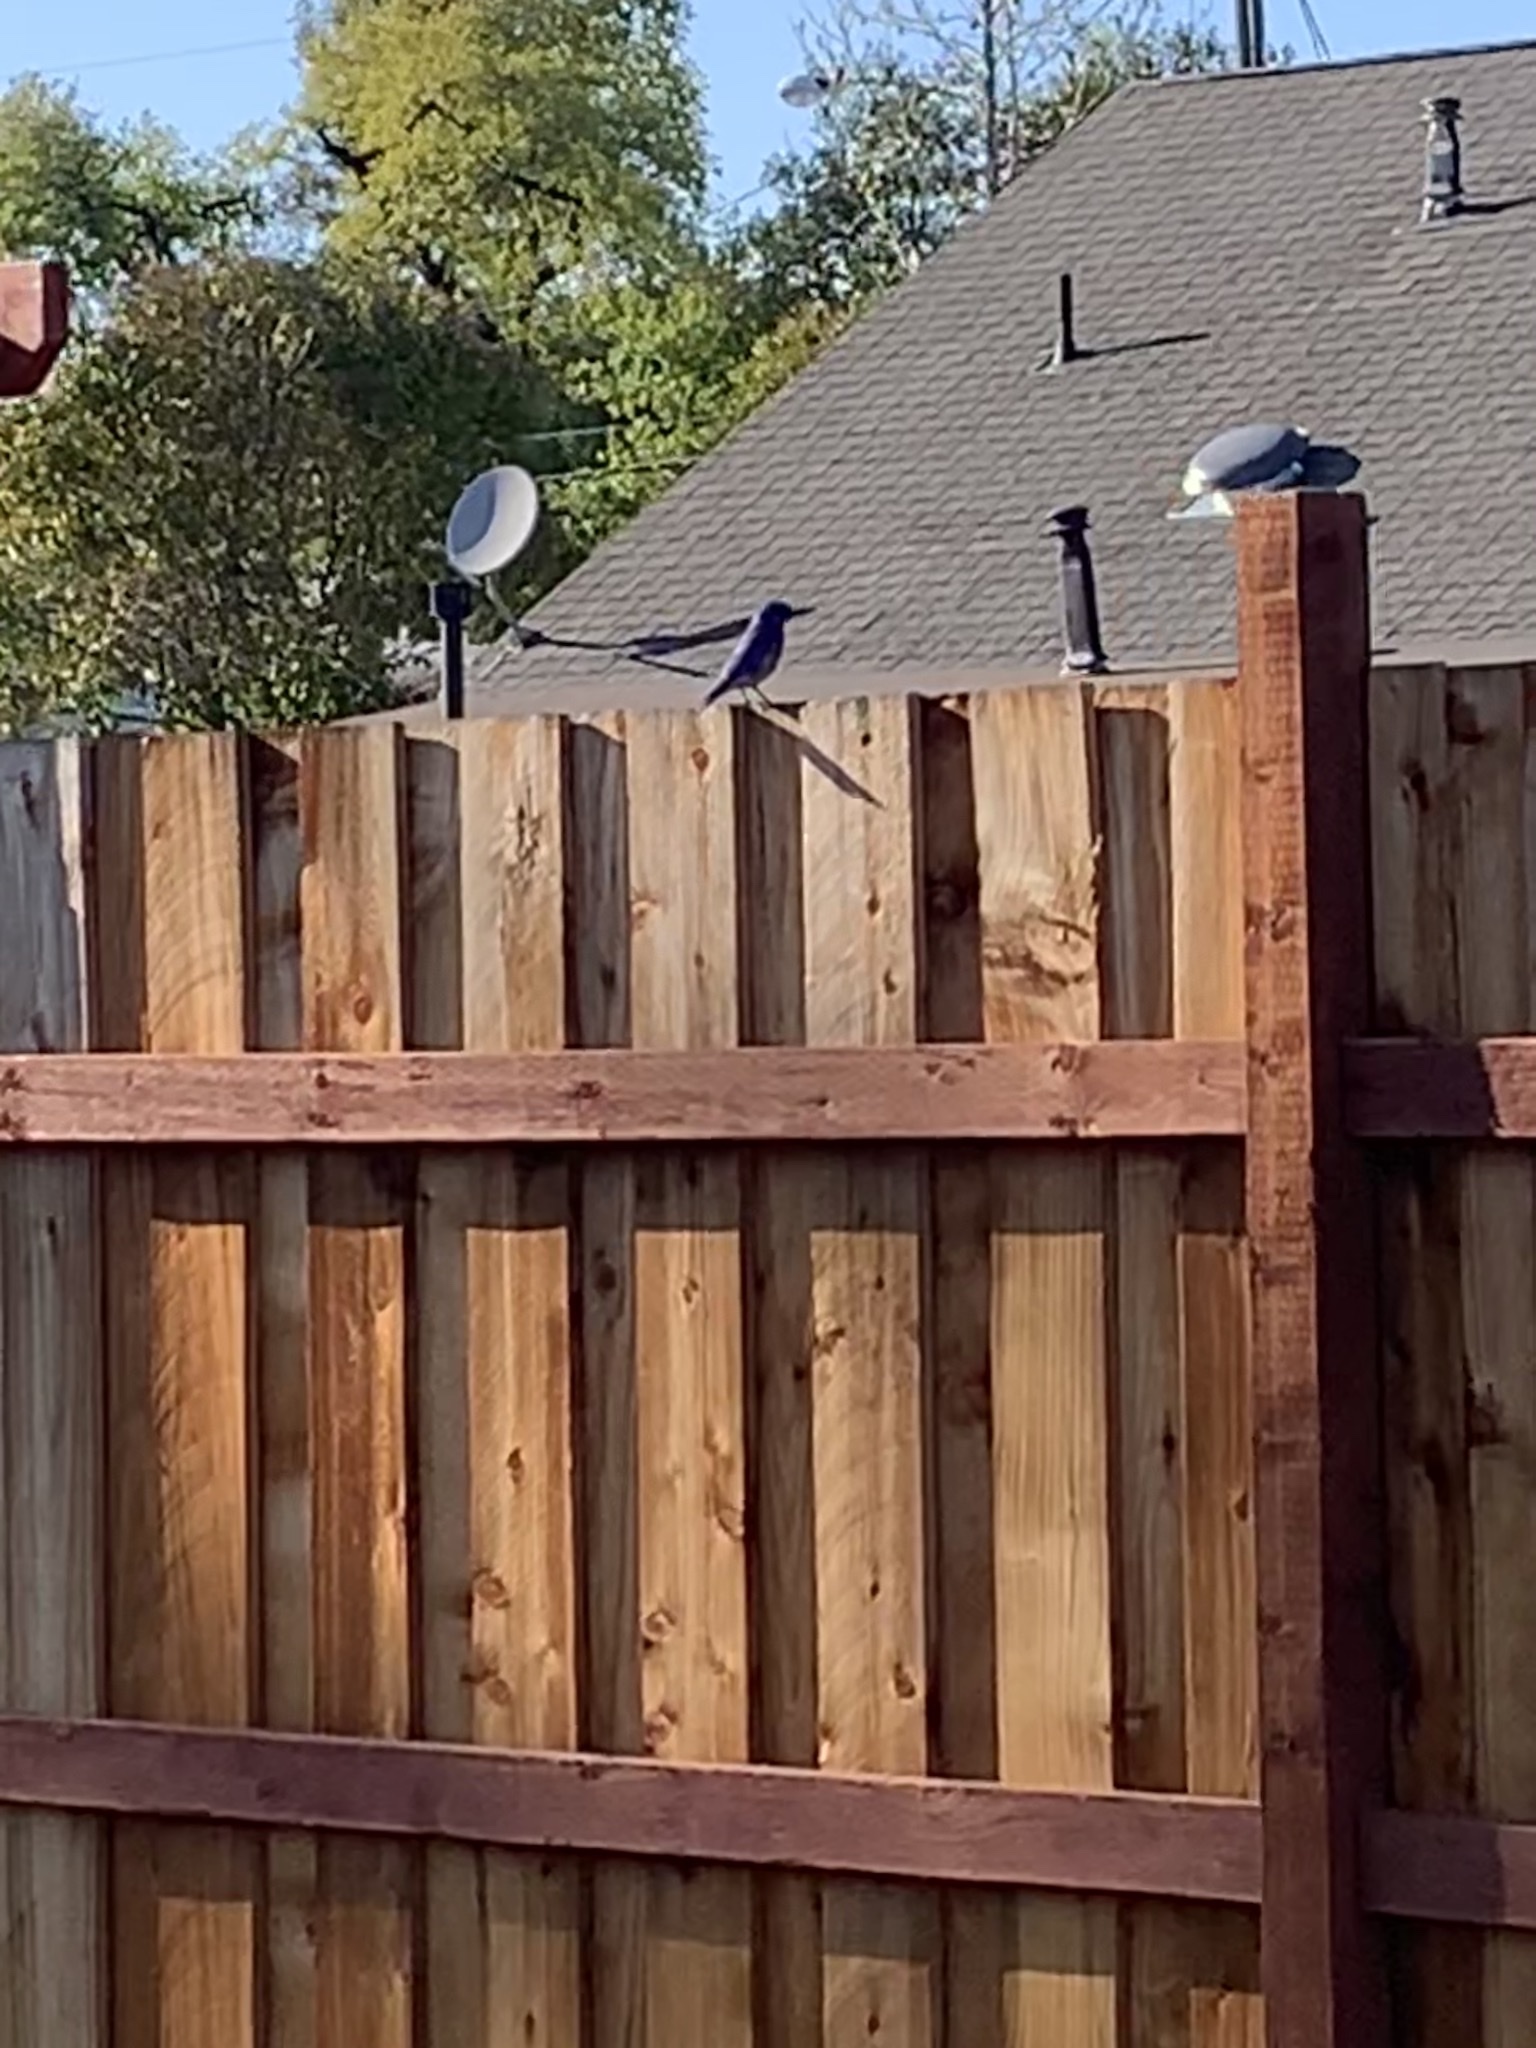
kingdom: Animalia
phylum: Chordata
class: Aves
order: Passeriformes
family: Turdidae
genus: Sialia
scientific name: Sialia mexicana
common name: Western bluebird
